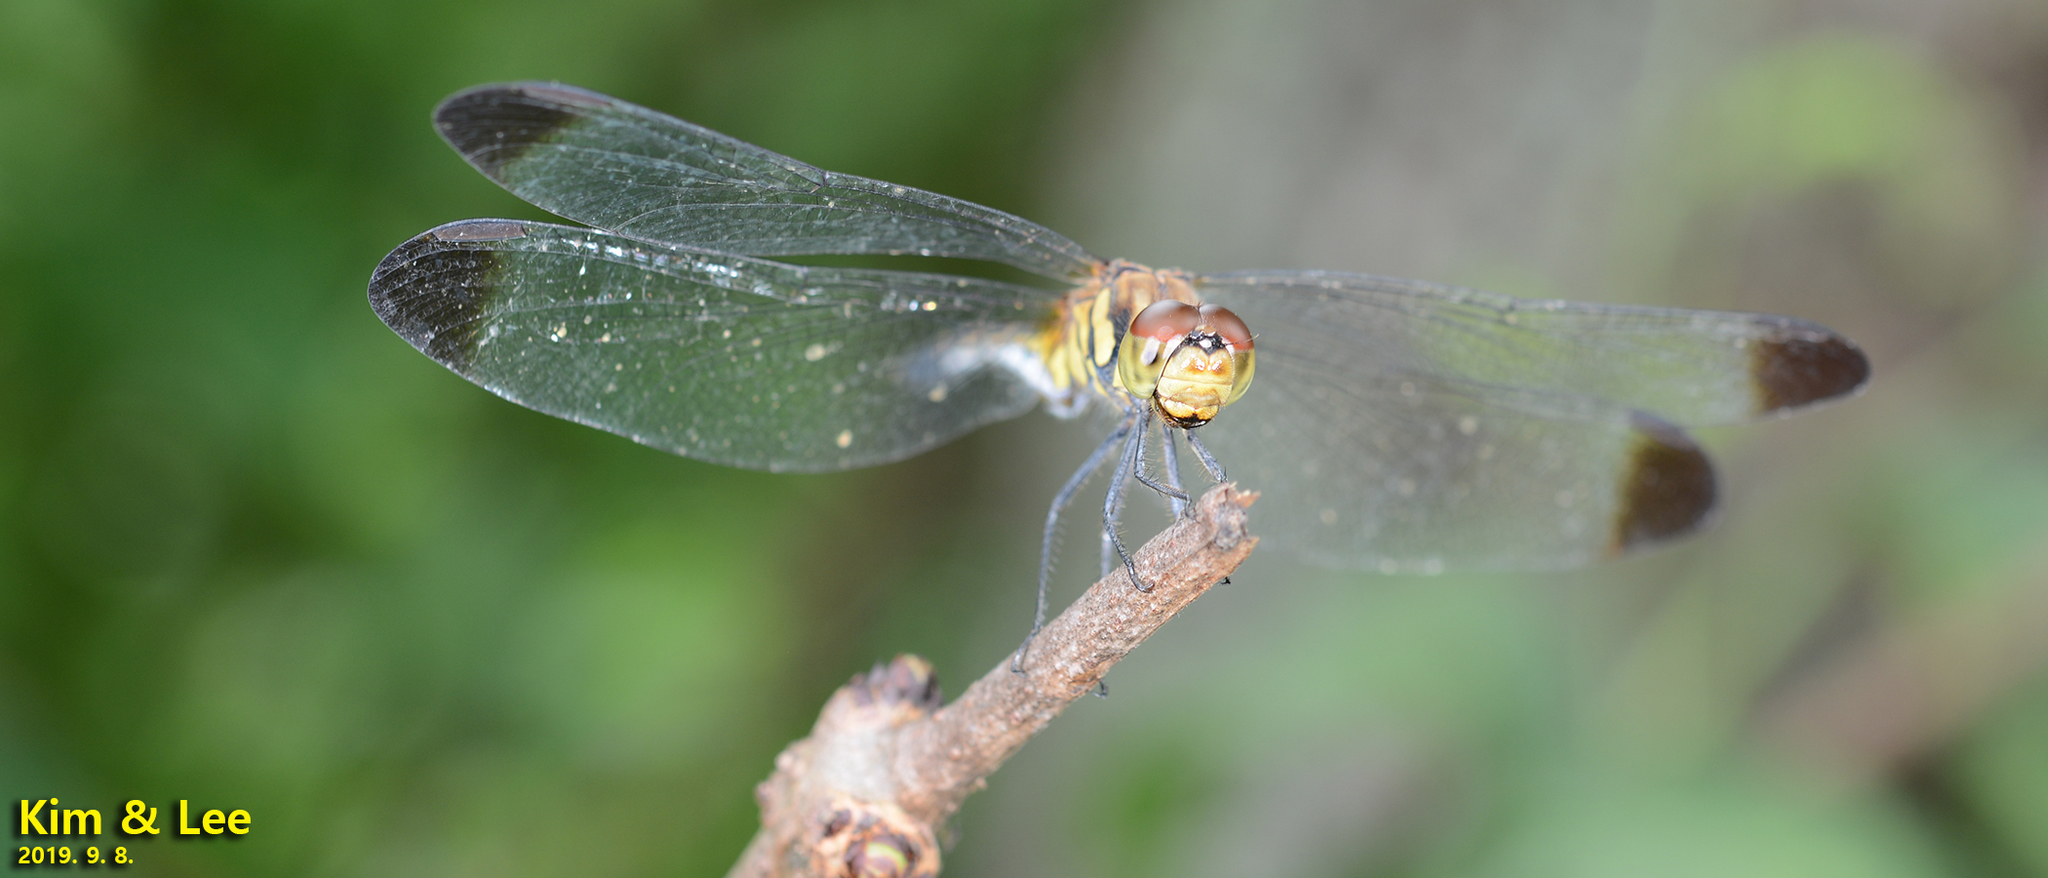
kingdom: Animalia
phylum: Arthropoda
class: Insecta
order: Odonata
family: Libellulidae
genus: Sympetrum
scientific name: Sympetrum infuscatum
